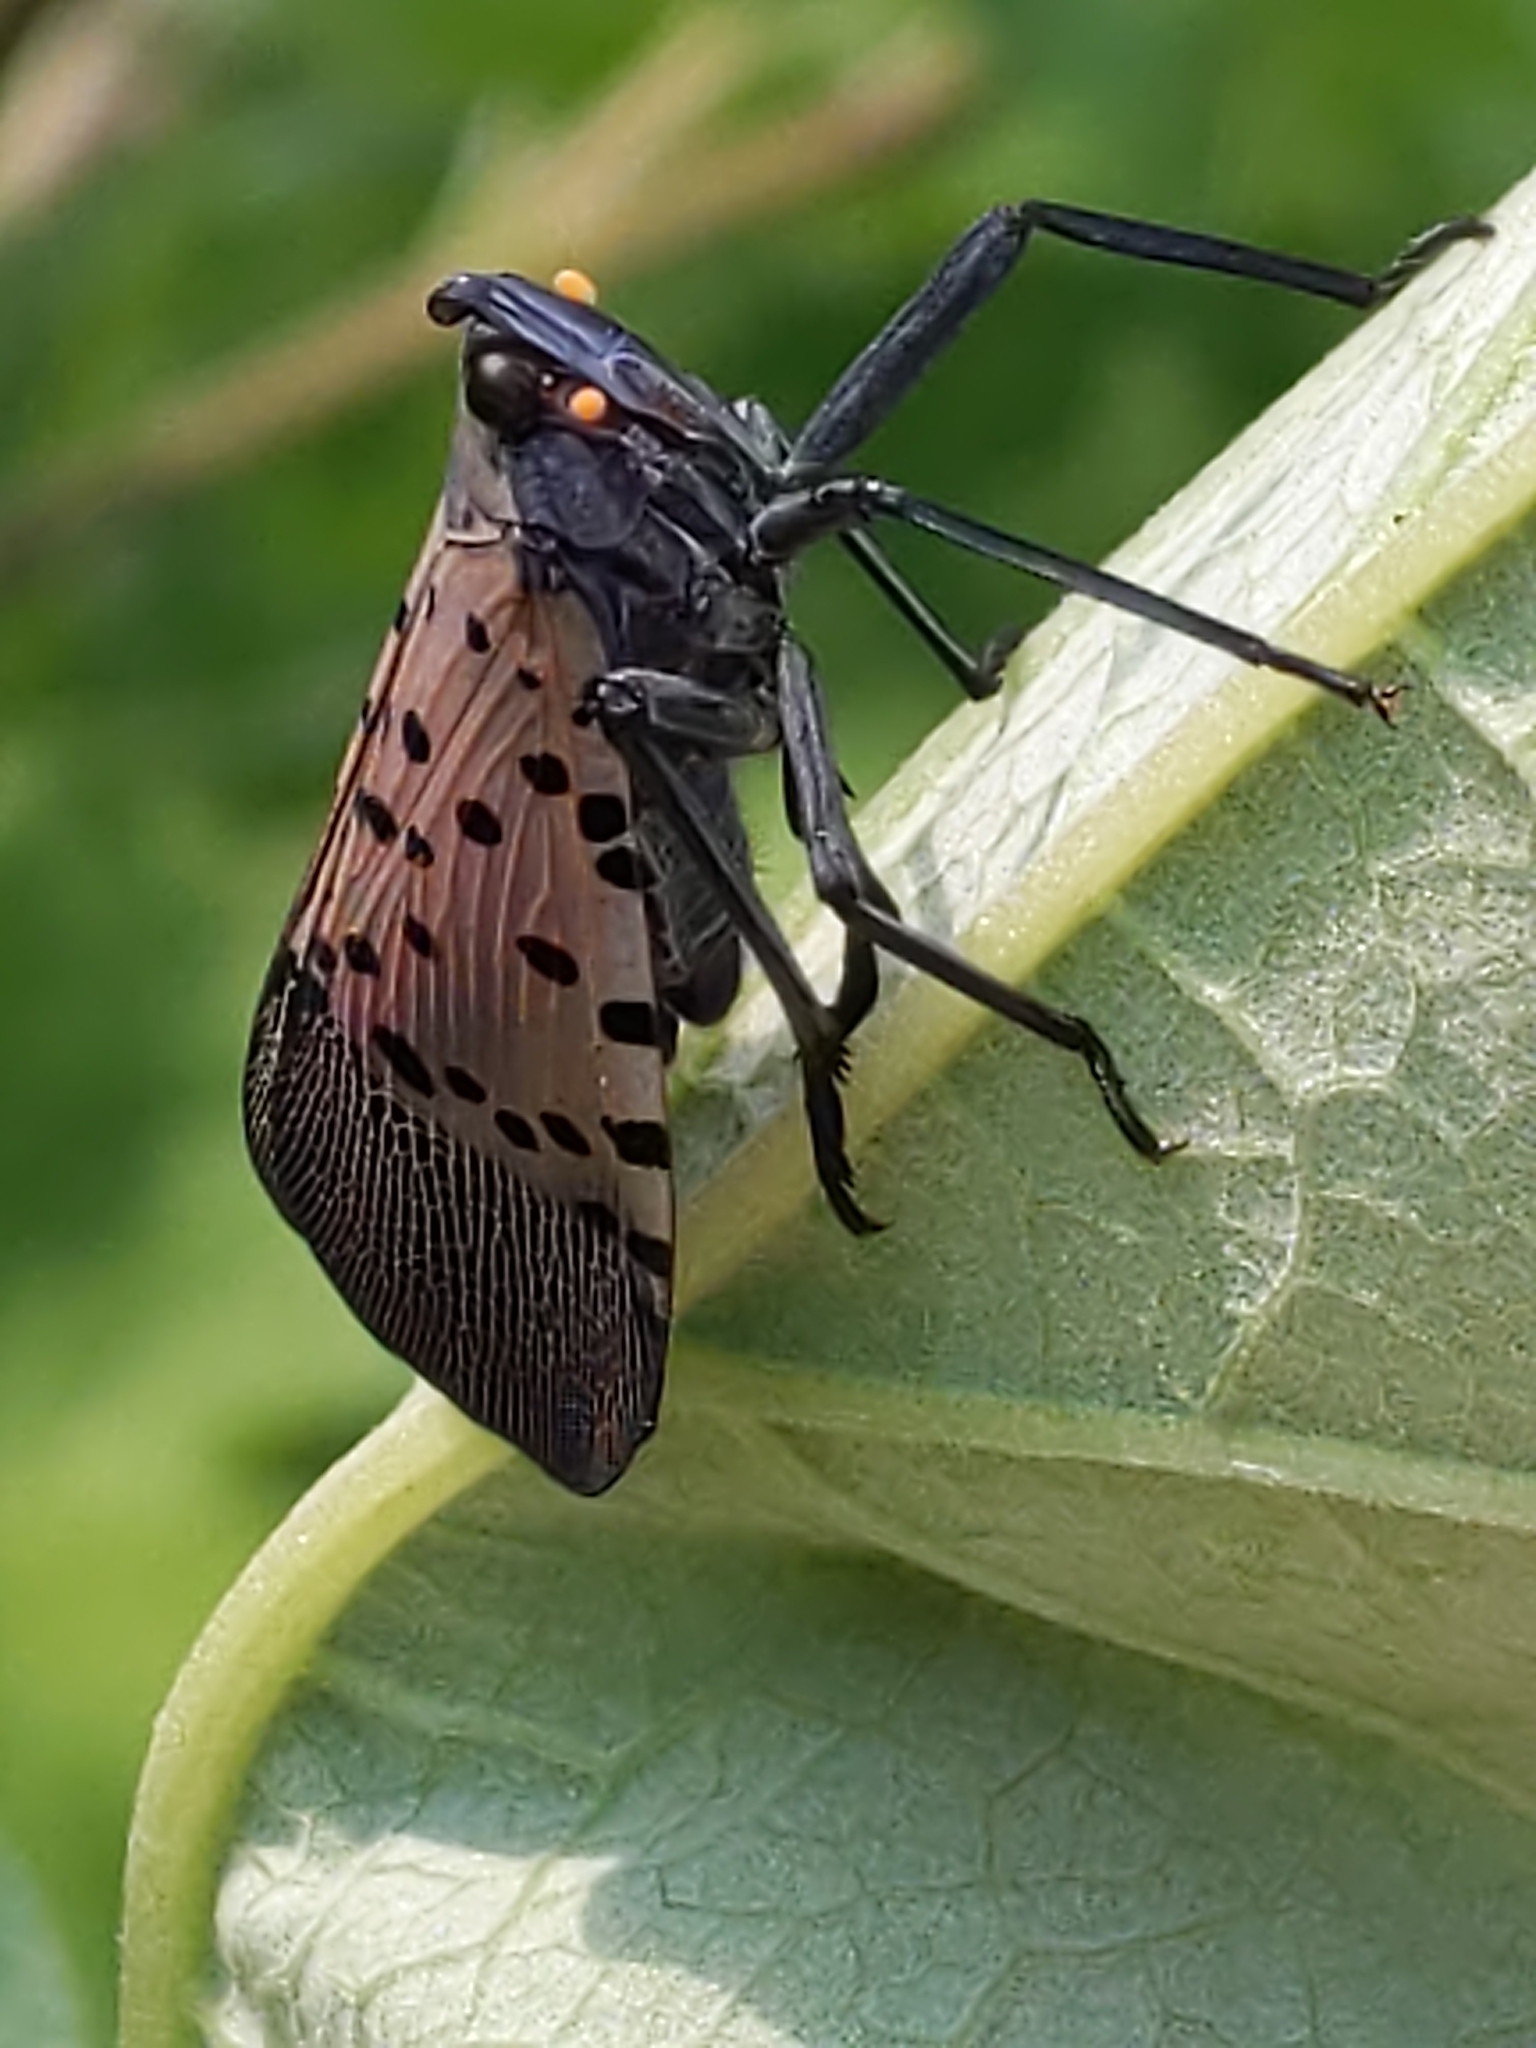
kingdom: Animalia
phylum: Arthropoda
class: Insecta
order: Hemiptera
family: Fulgoridae
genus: Lycorma
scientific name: Lycorma delicatula
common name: Spotted lanternfly
